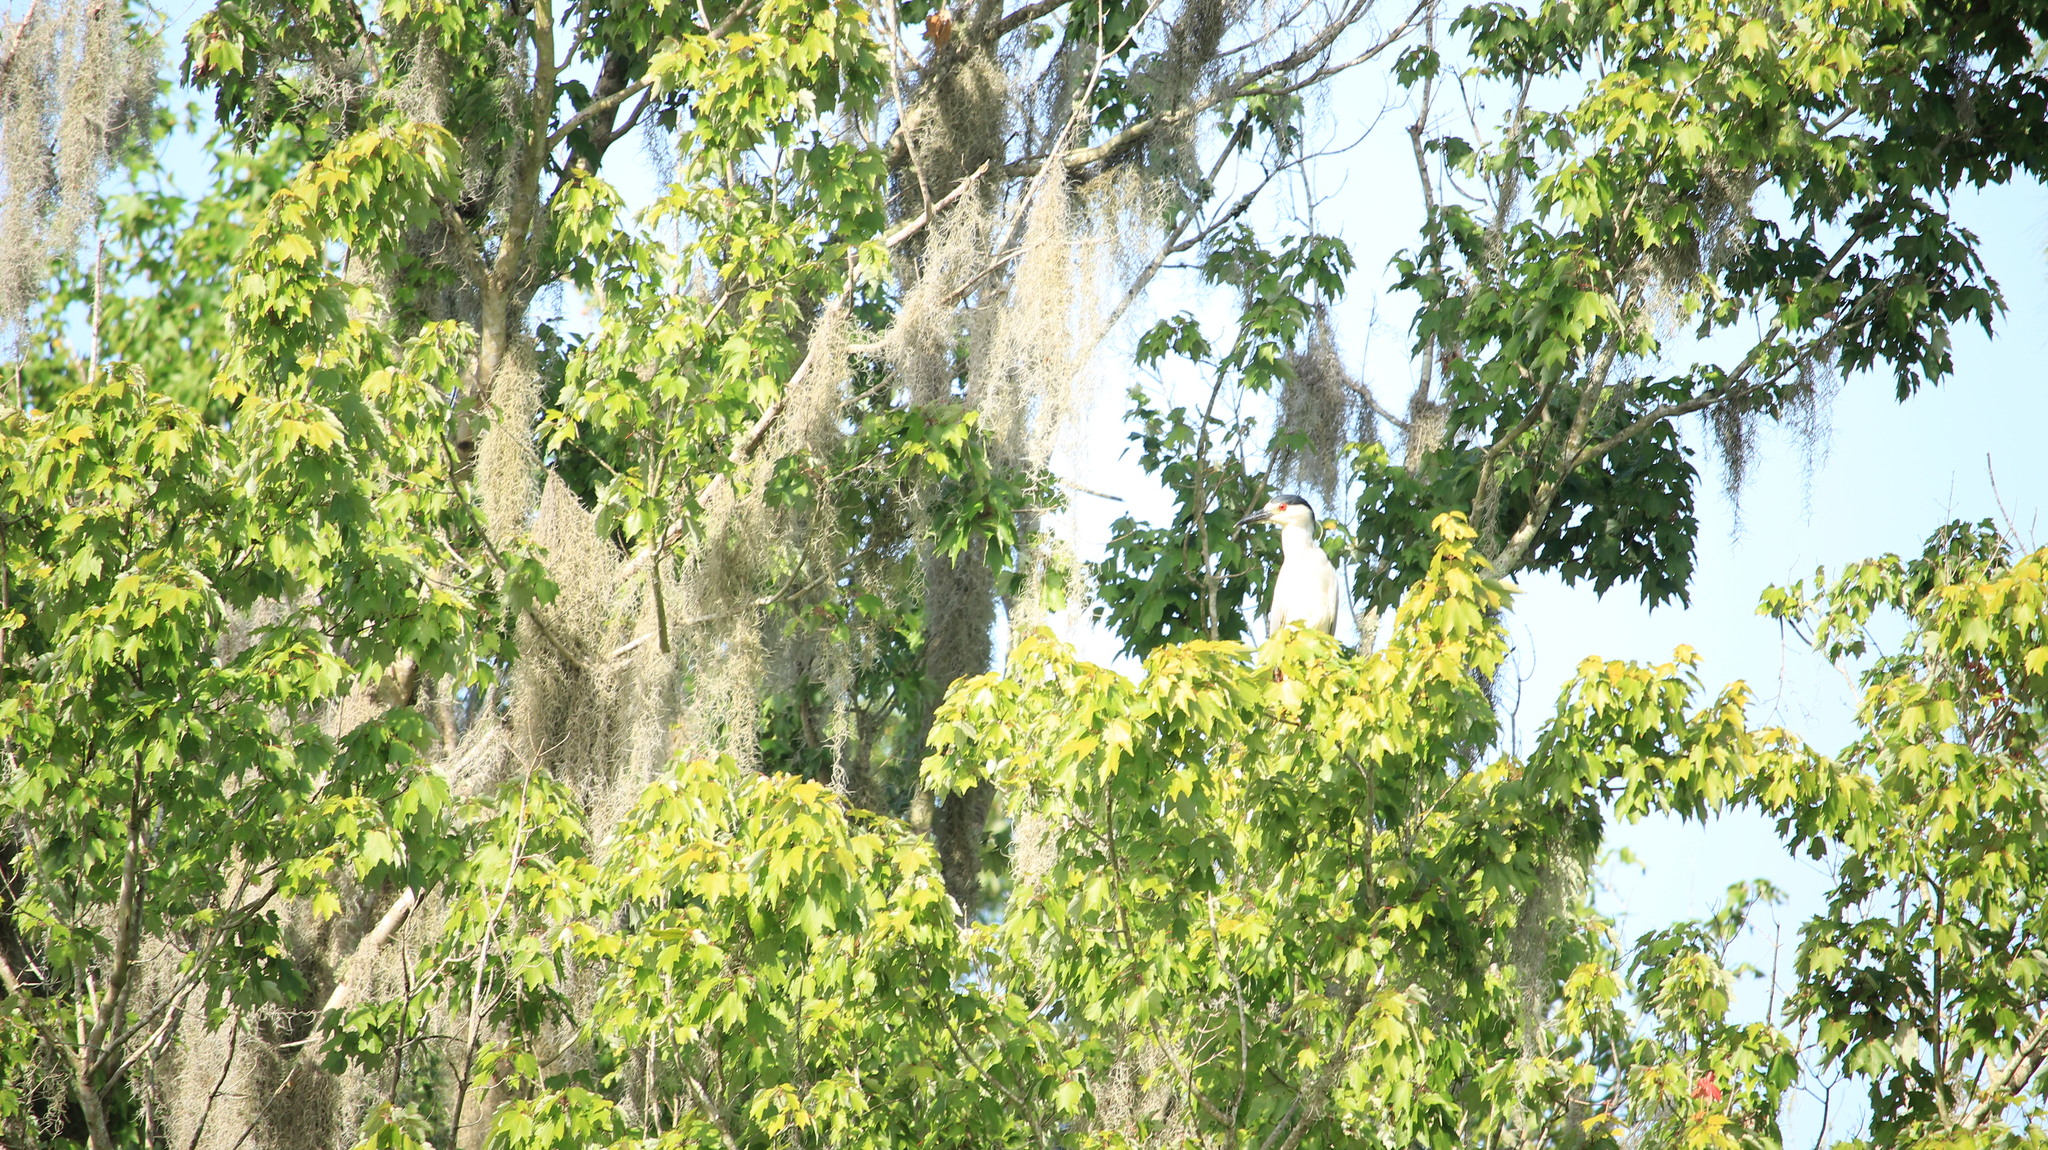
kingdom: Animalia
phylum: Chordata
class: Aves
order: Pelecaniformes
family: Ardeidae
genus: Nycticorax
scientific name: Nycticorax nycticorax
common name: Black-crowned night heron
